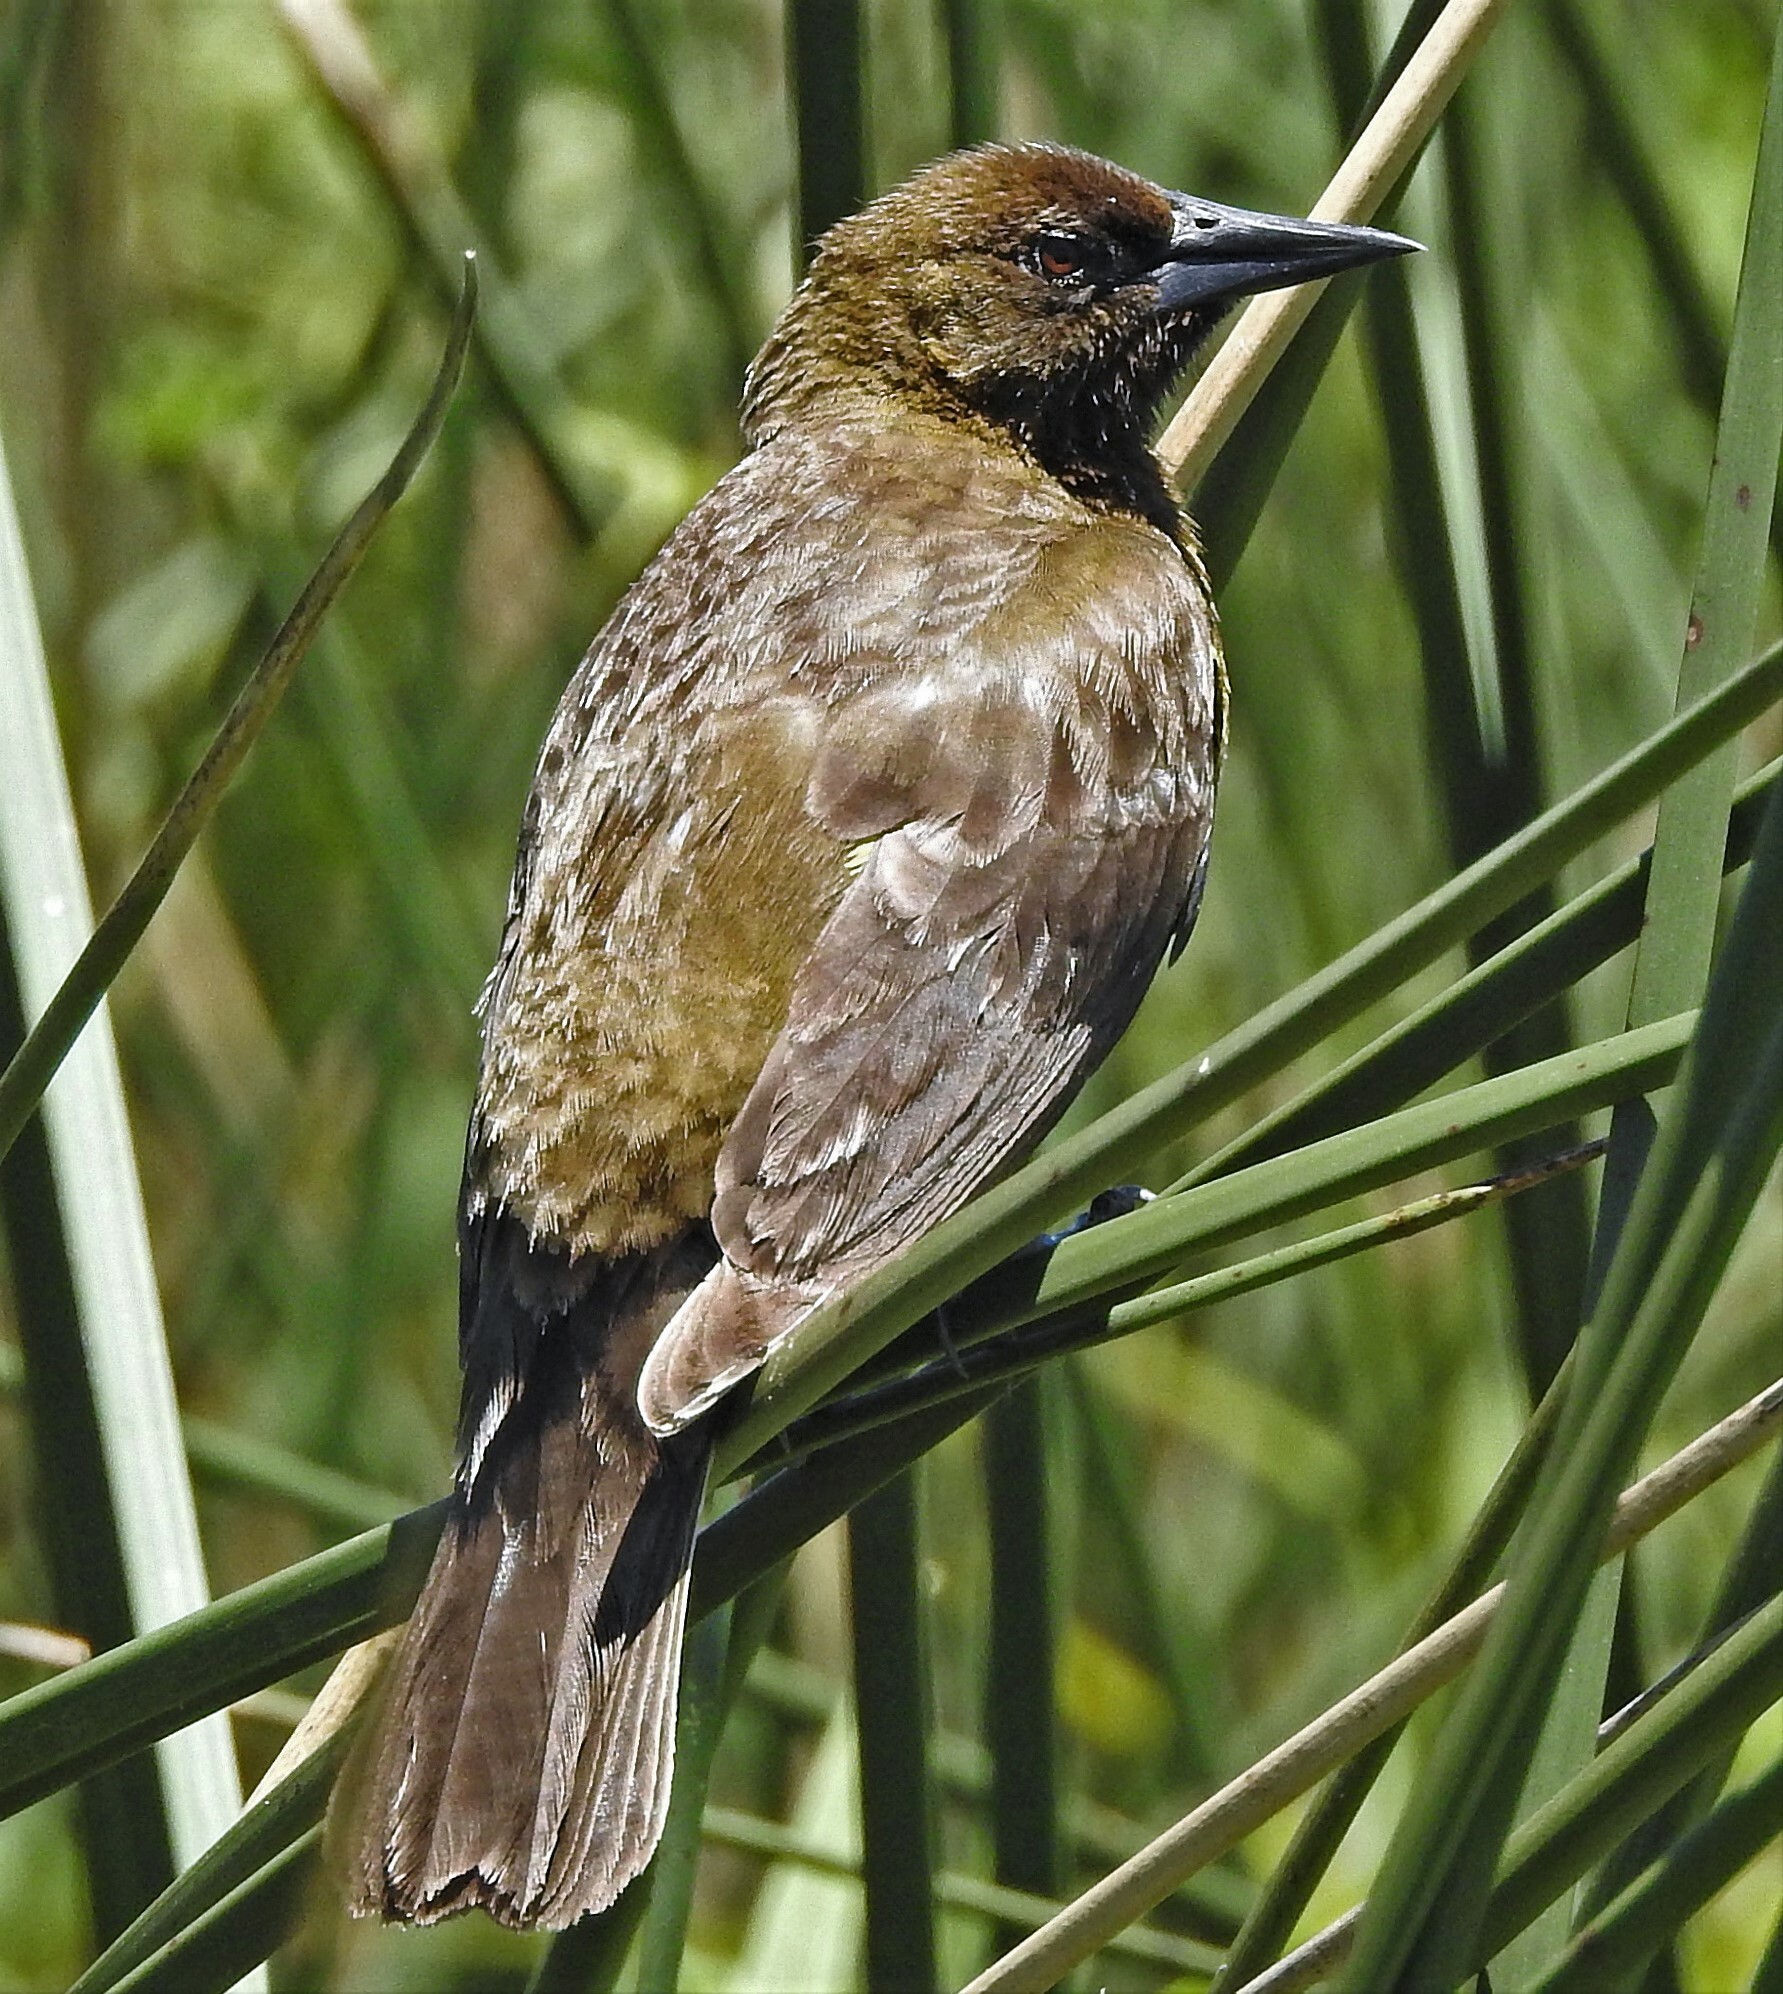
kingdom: Animalia
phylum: Chordata
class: Aves
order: Passeriformes
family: Icteridae
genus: Pseudoleistes
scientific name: Pseudoleistes virescens
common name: Brown-and-yellow marshbird
